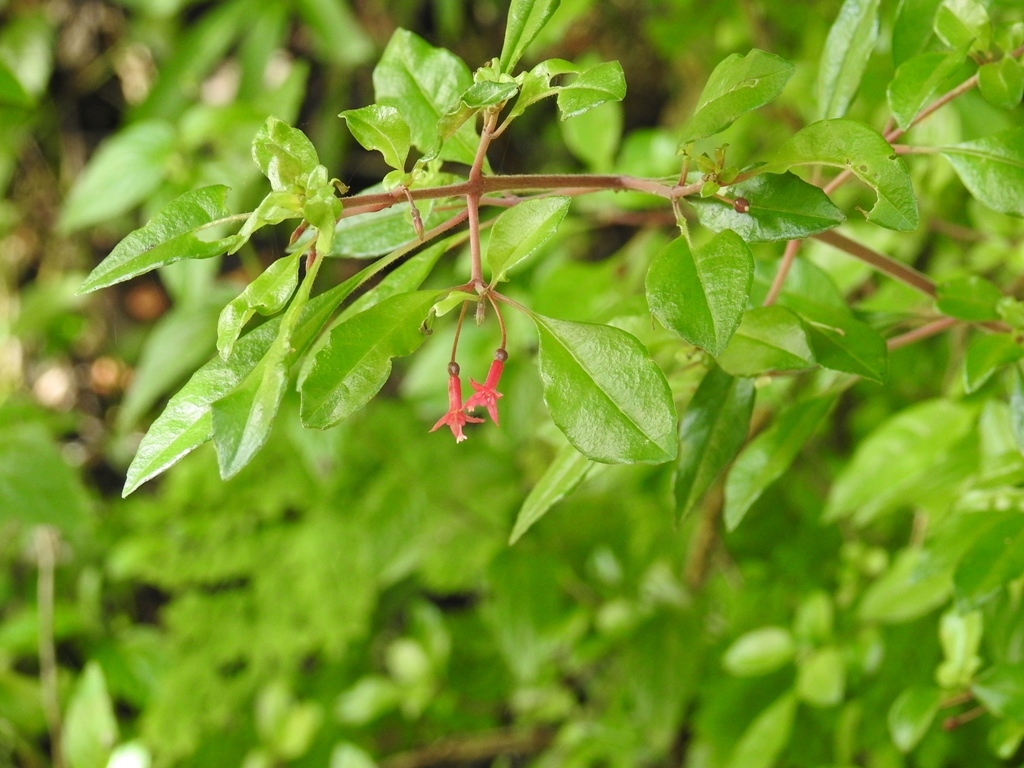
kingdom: Plantae
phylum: Tracheophyta
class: Magnoliopsida
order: Myrtales
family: Onagraceae
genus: Fuchsia
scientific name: Fuchsia thymifolia
